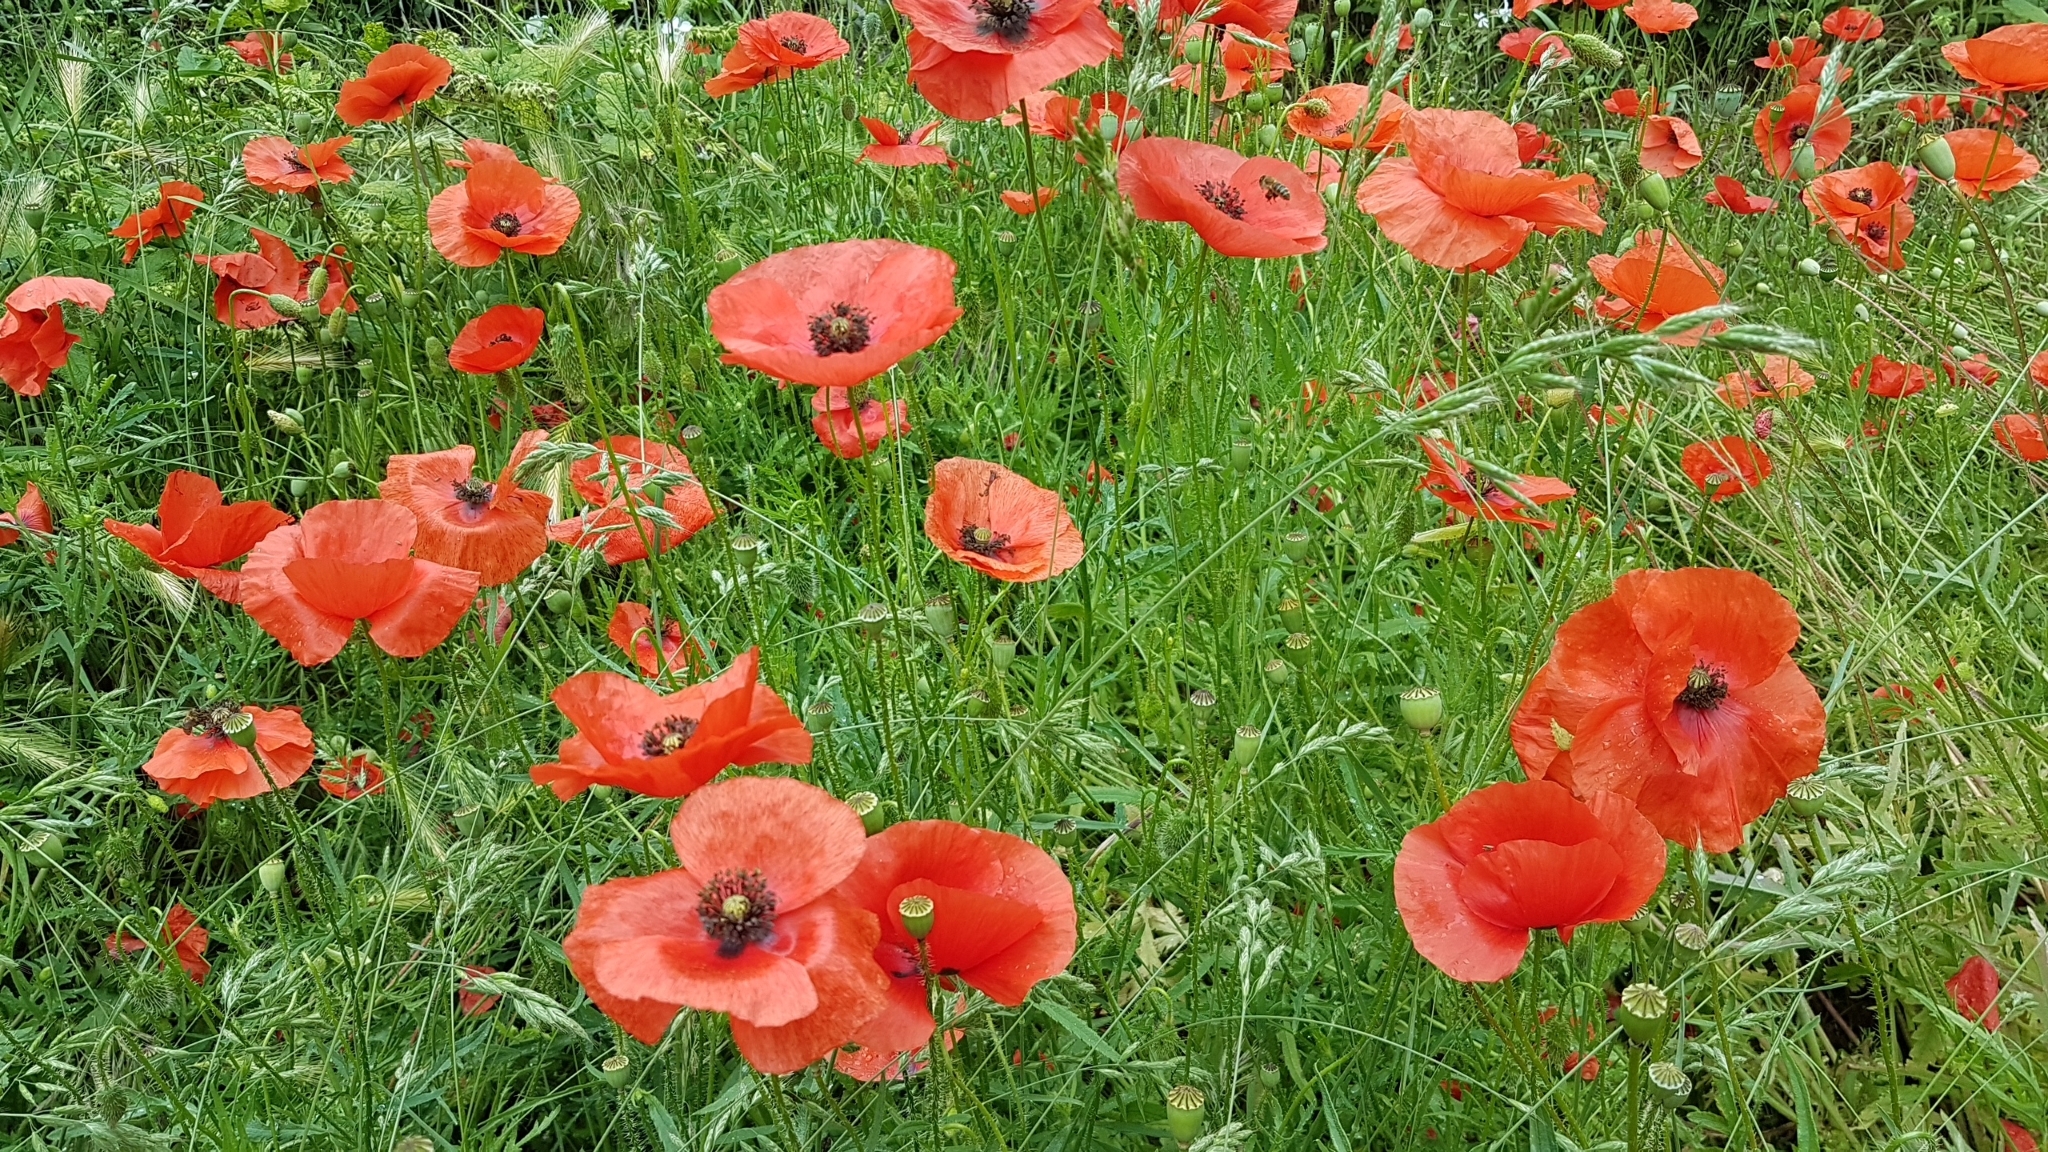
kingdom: Plantae
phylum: Tracheophyta
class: Magnoliopsida
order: Ranunculales
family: Papaveraceae
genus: Papaver
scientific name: Papaver rhoeas
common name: Corn poppy
